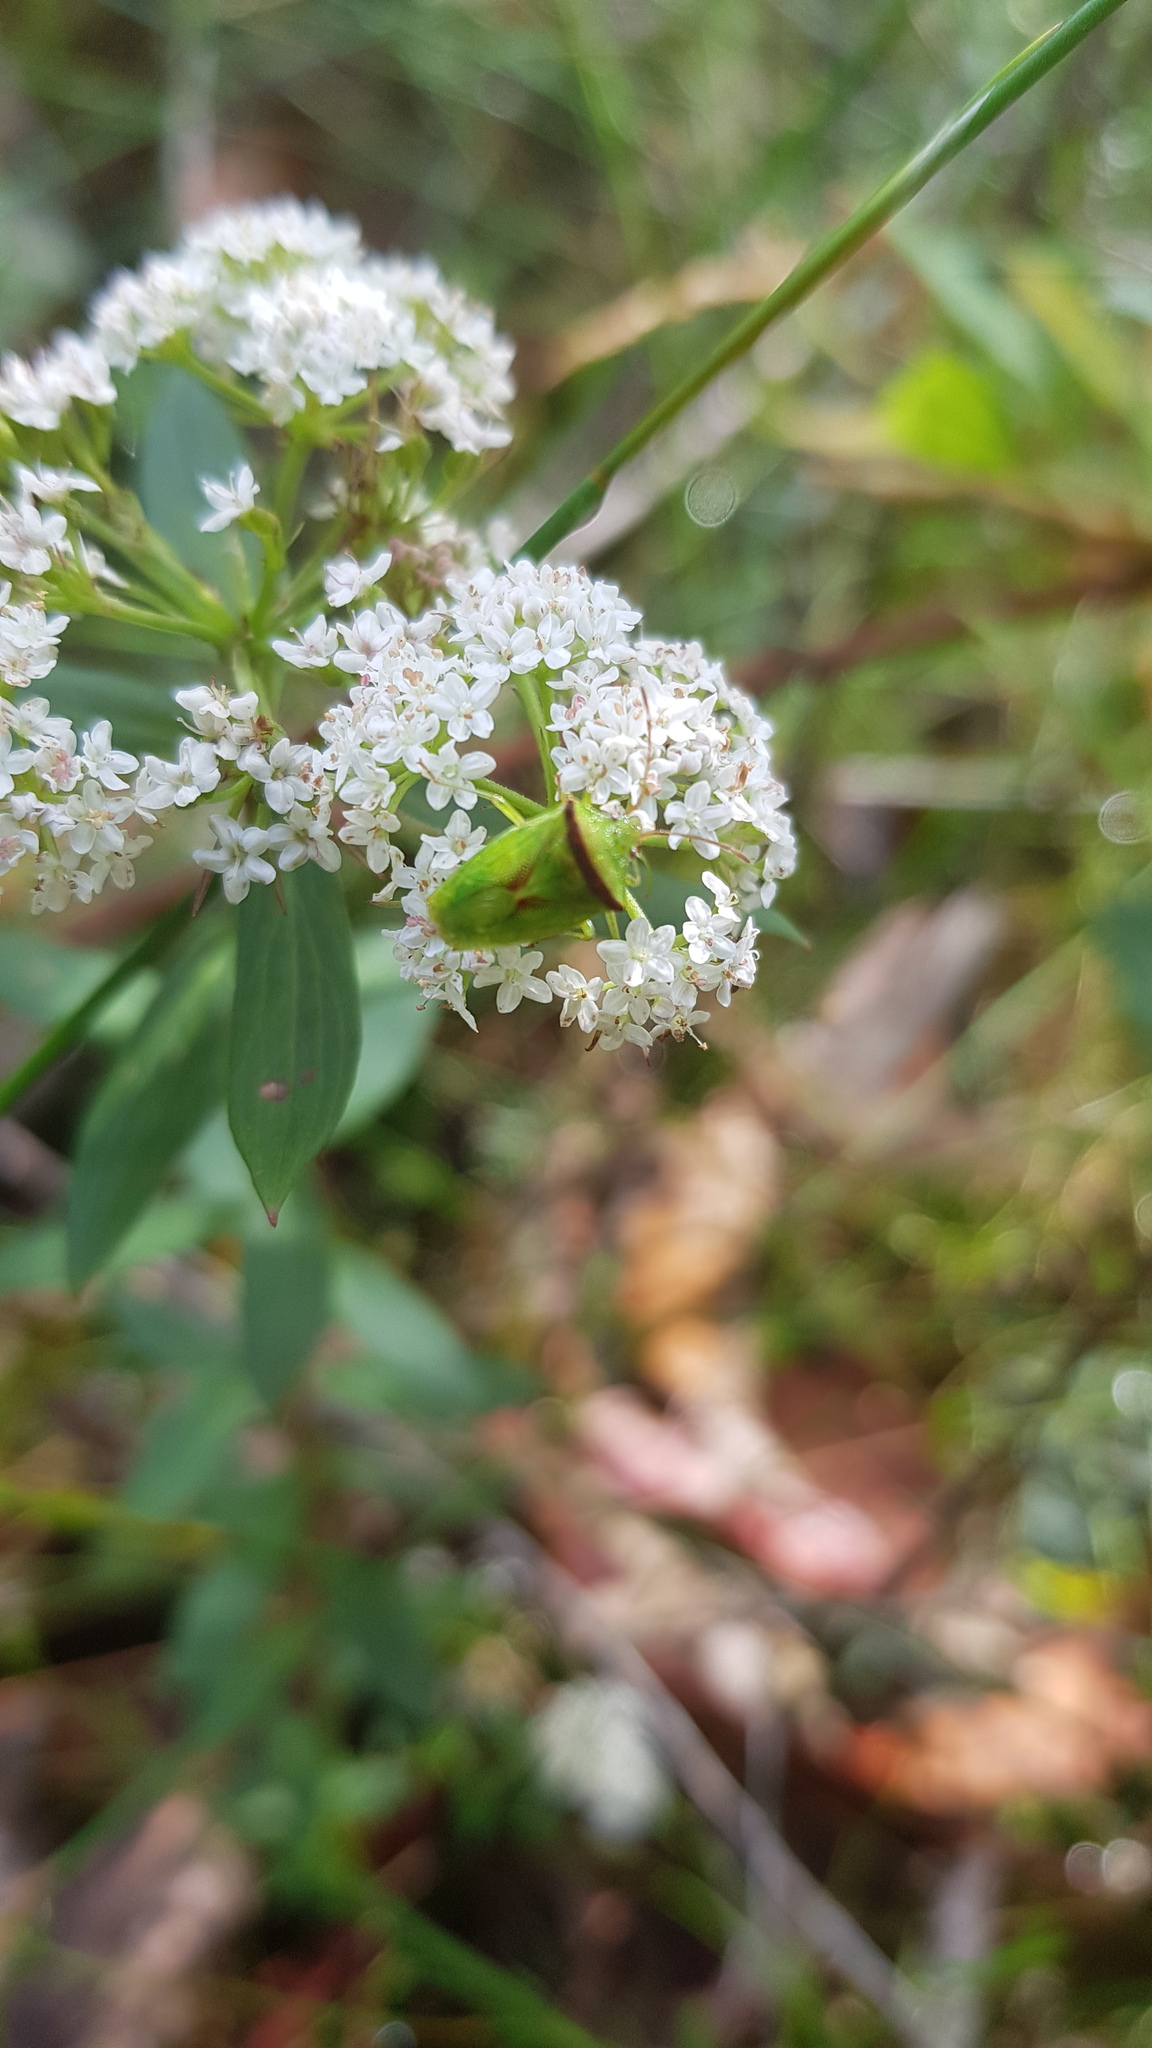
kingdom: Plantae
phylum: Tracheophyta
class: Magnoliopsida
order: Apiales
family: Apiaceae
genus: Platysace
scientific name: Platysace lanceolata
